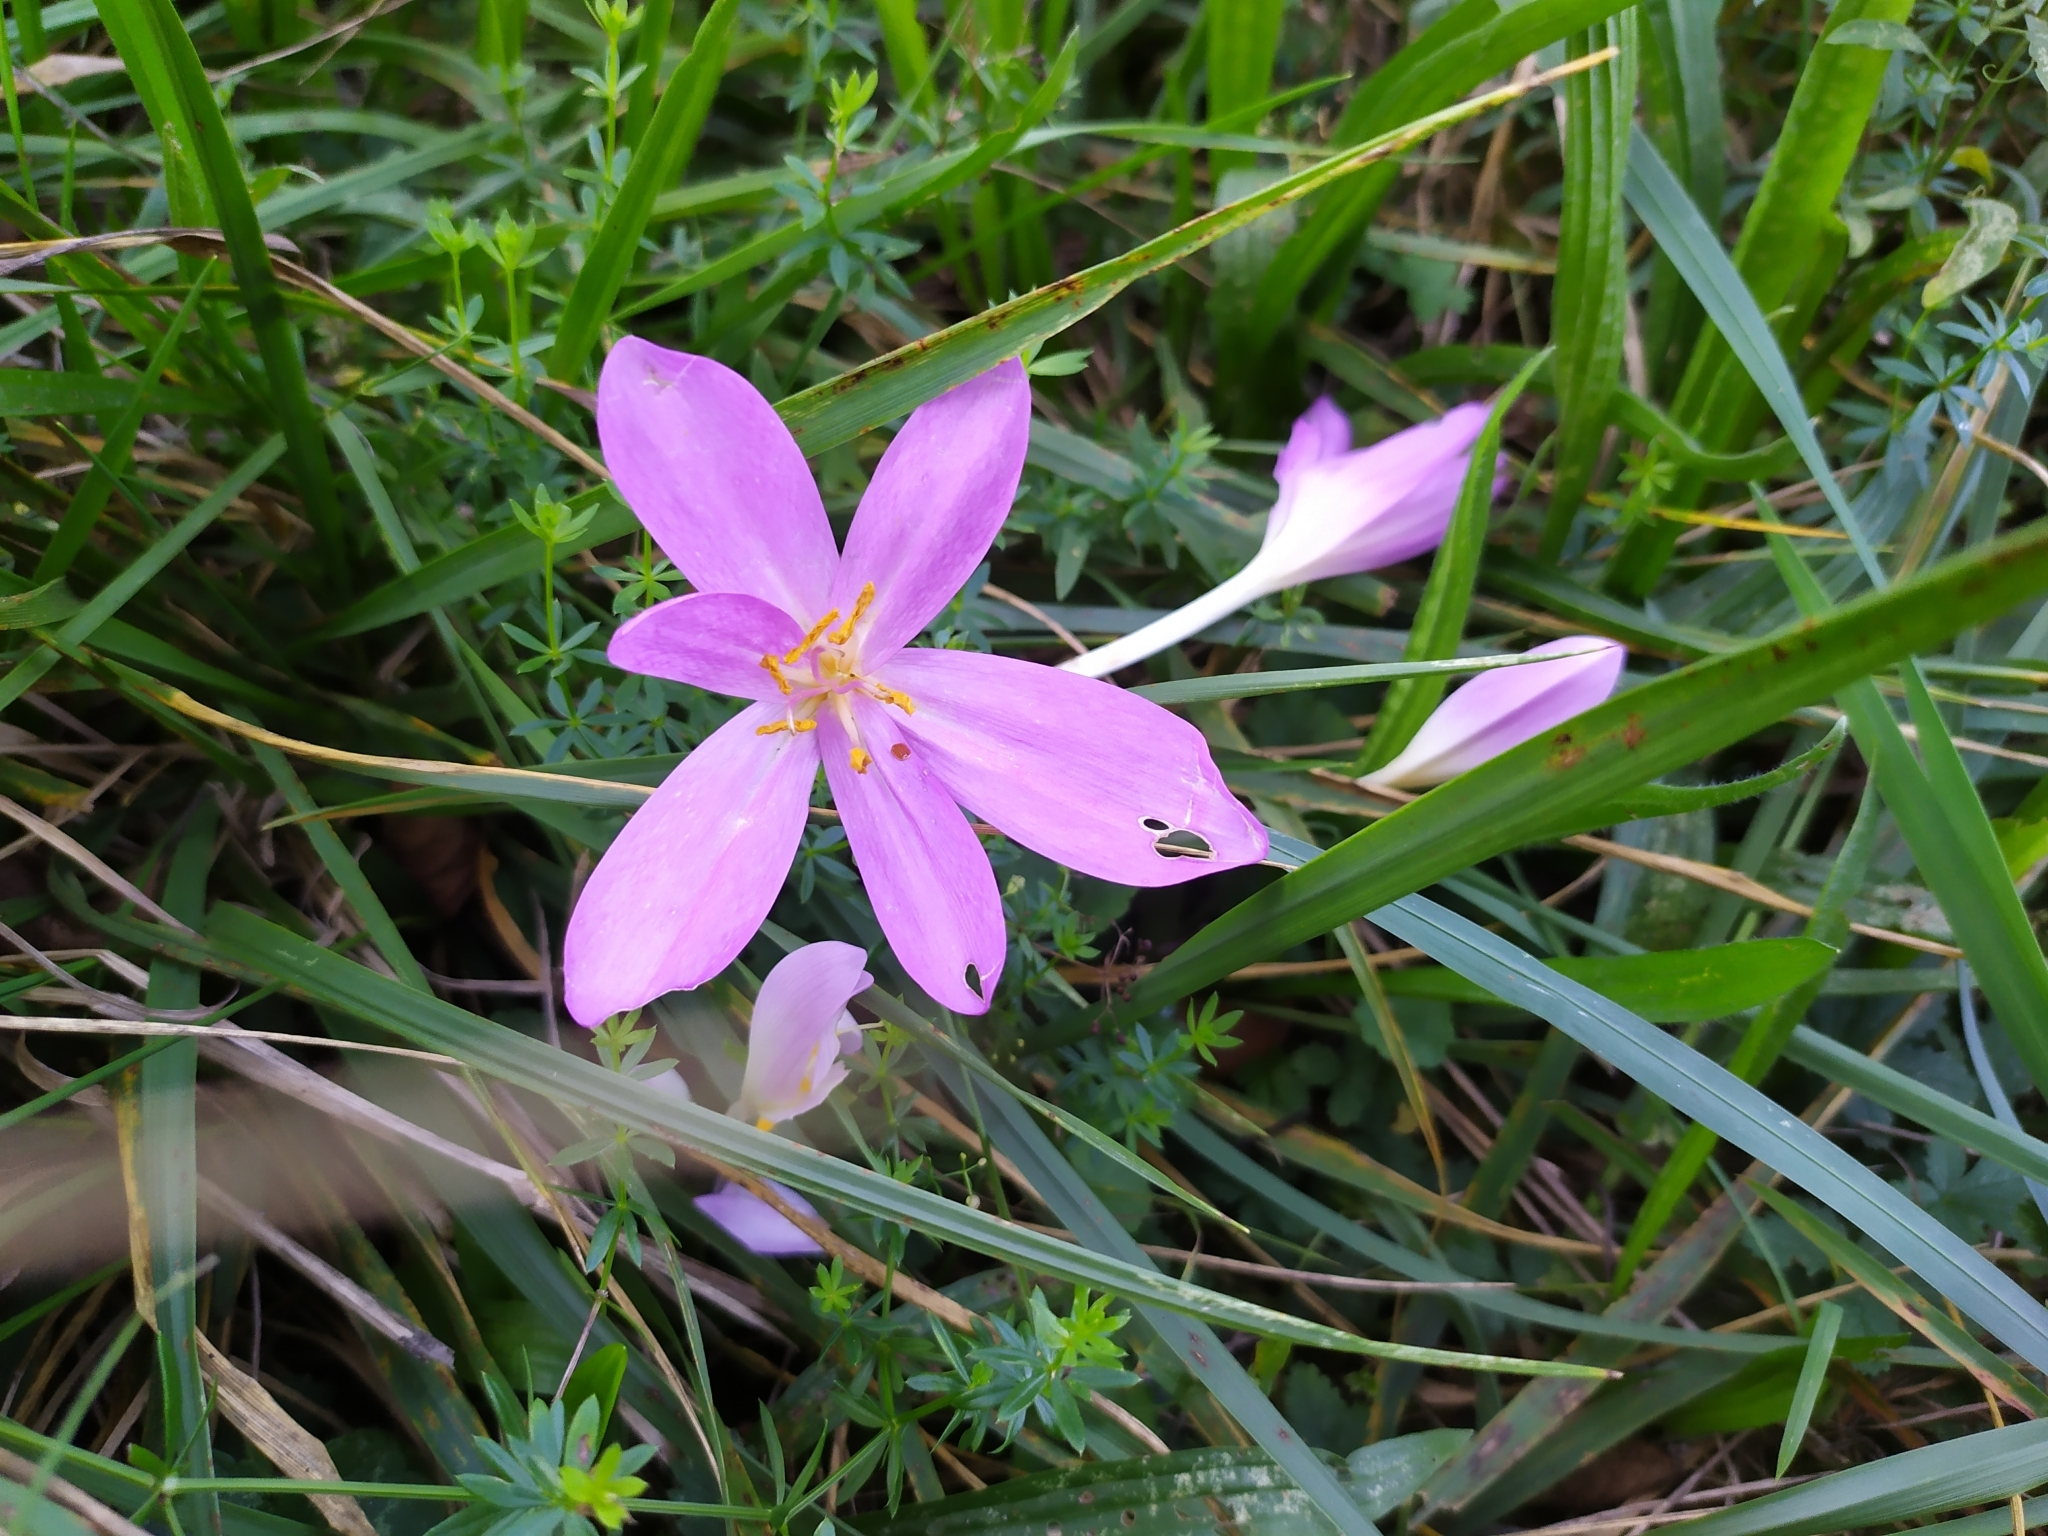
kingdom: Plantae
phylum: Tracheophyta
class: Liliopsida
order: Liliales
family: Colchicaceae
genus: Colchicum
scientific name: Colchicum autumnale
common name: Autumn crocus
